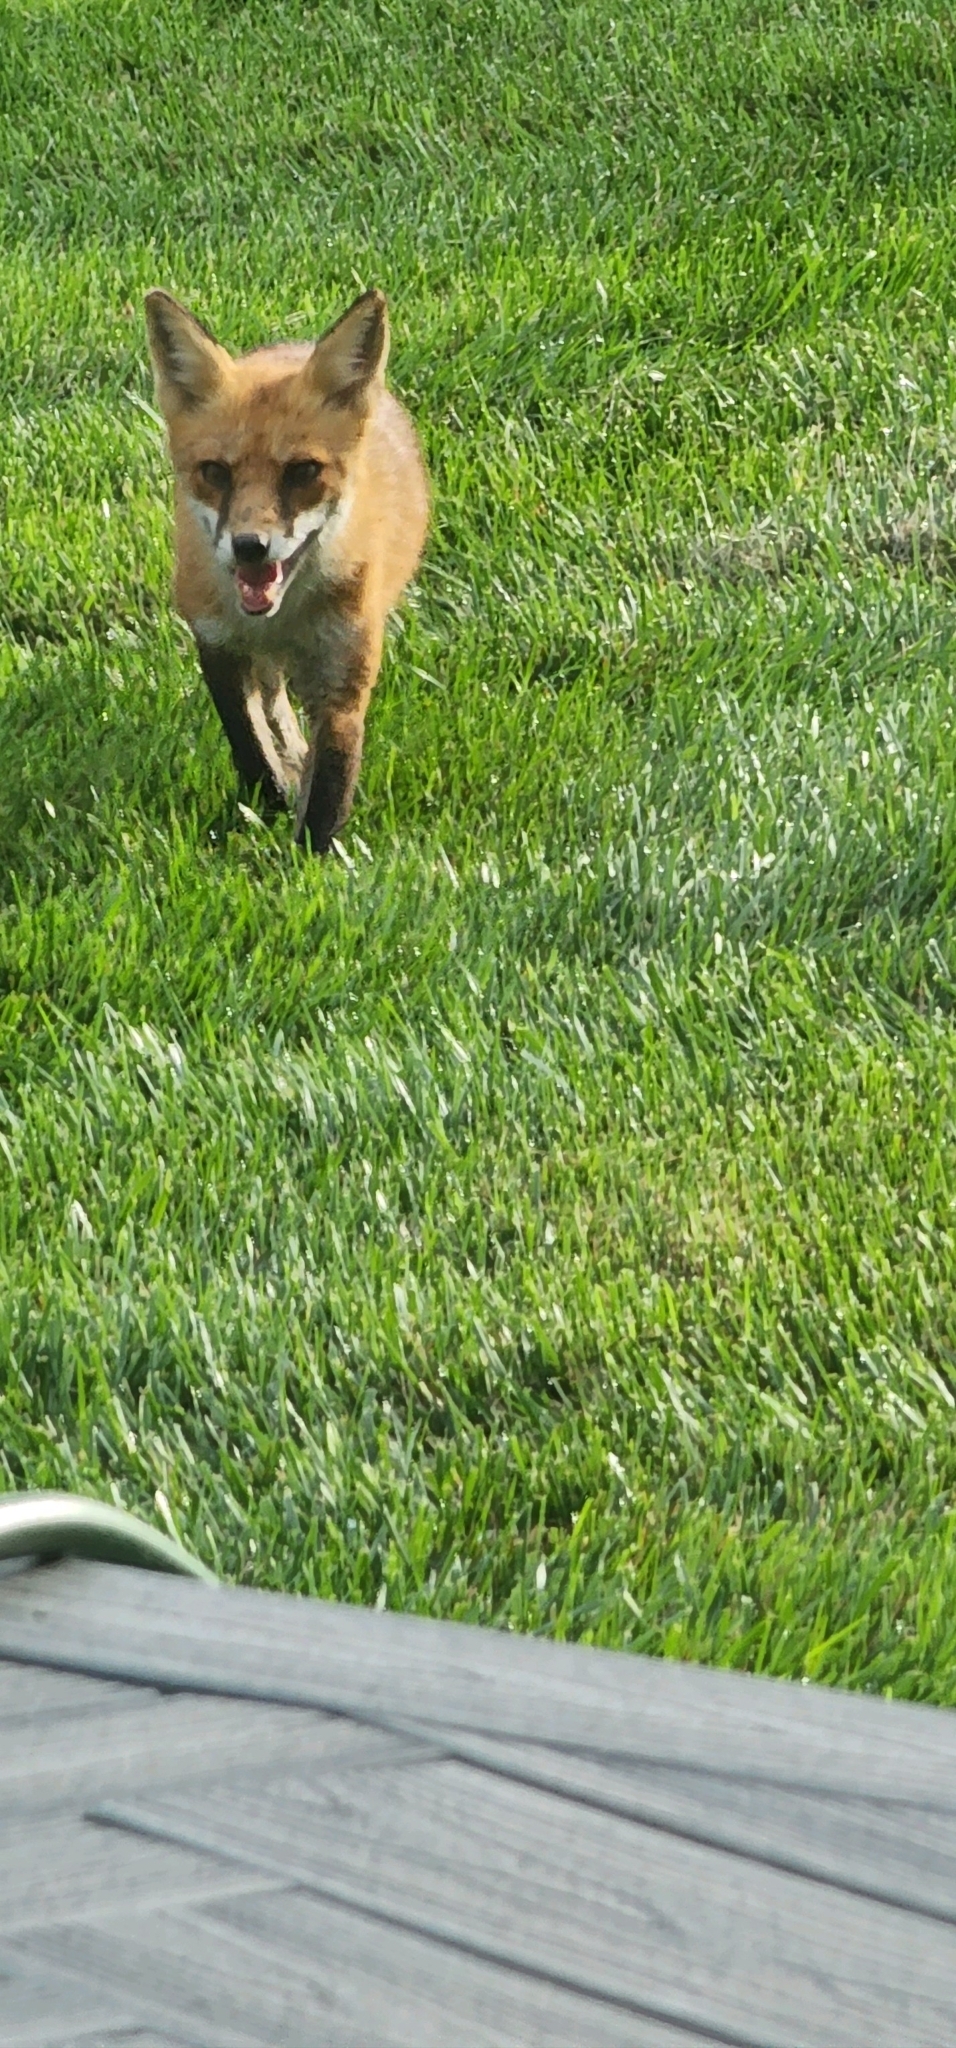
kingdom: Animalia
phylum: Chordata
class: Mammalia
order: Carnivora
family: Canidae
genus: Vulpes
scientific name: Vulpes vulpes
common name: Red fox
